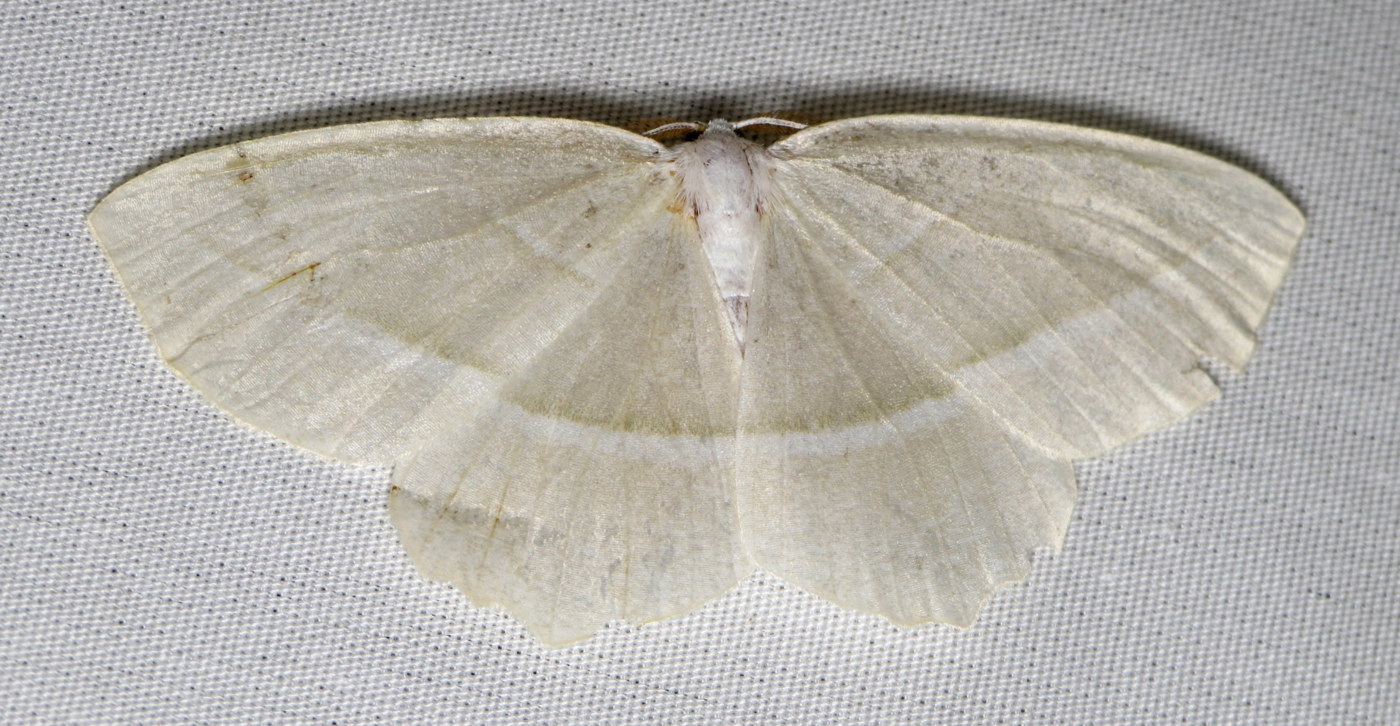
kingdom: Animalia
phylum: Arthropoda
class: Insecta
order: Lepidoptera
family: Geometridae
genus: Campaea
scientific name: Campaea perlata
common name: Fringed looper
